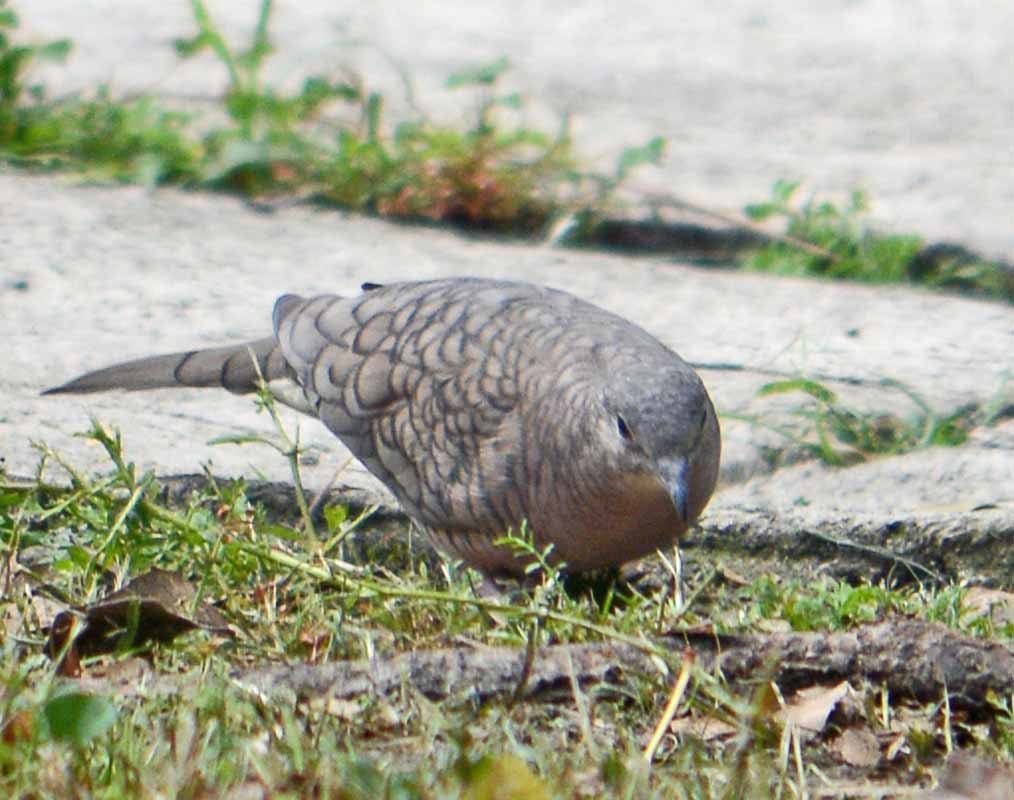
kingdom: Animalia
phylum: Chordata
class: Aves
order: Columbiformes
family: Columbidae
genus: Columbina
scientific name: Columbina inca
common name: Inca dove
